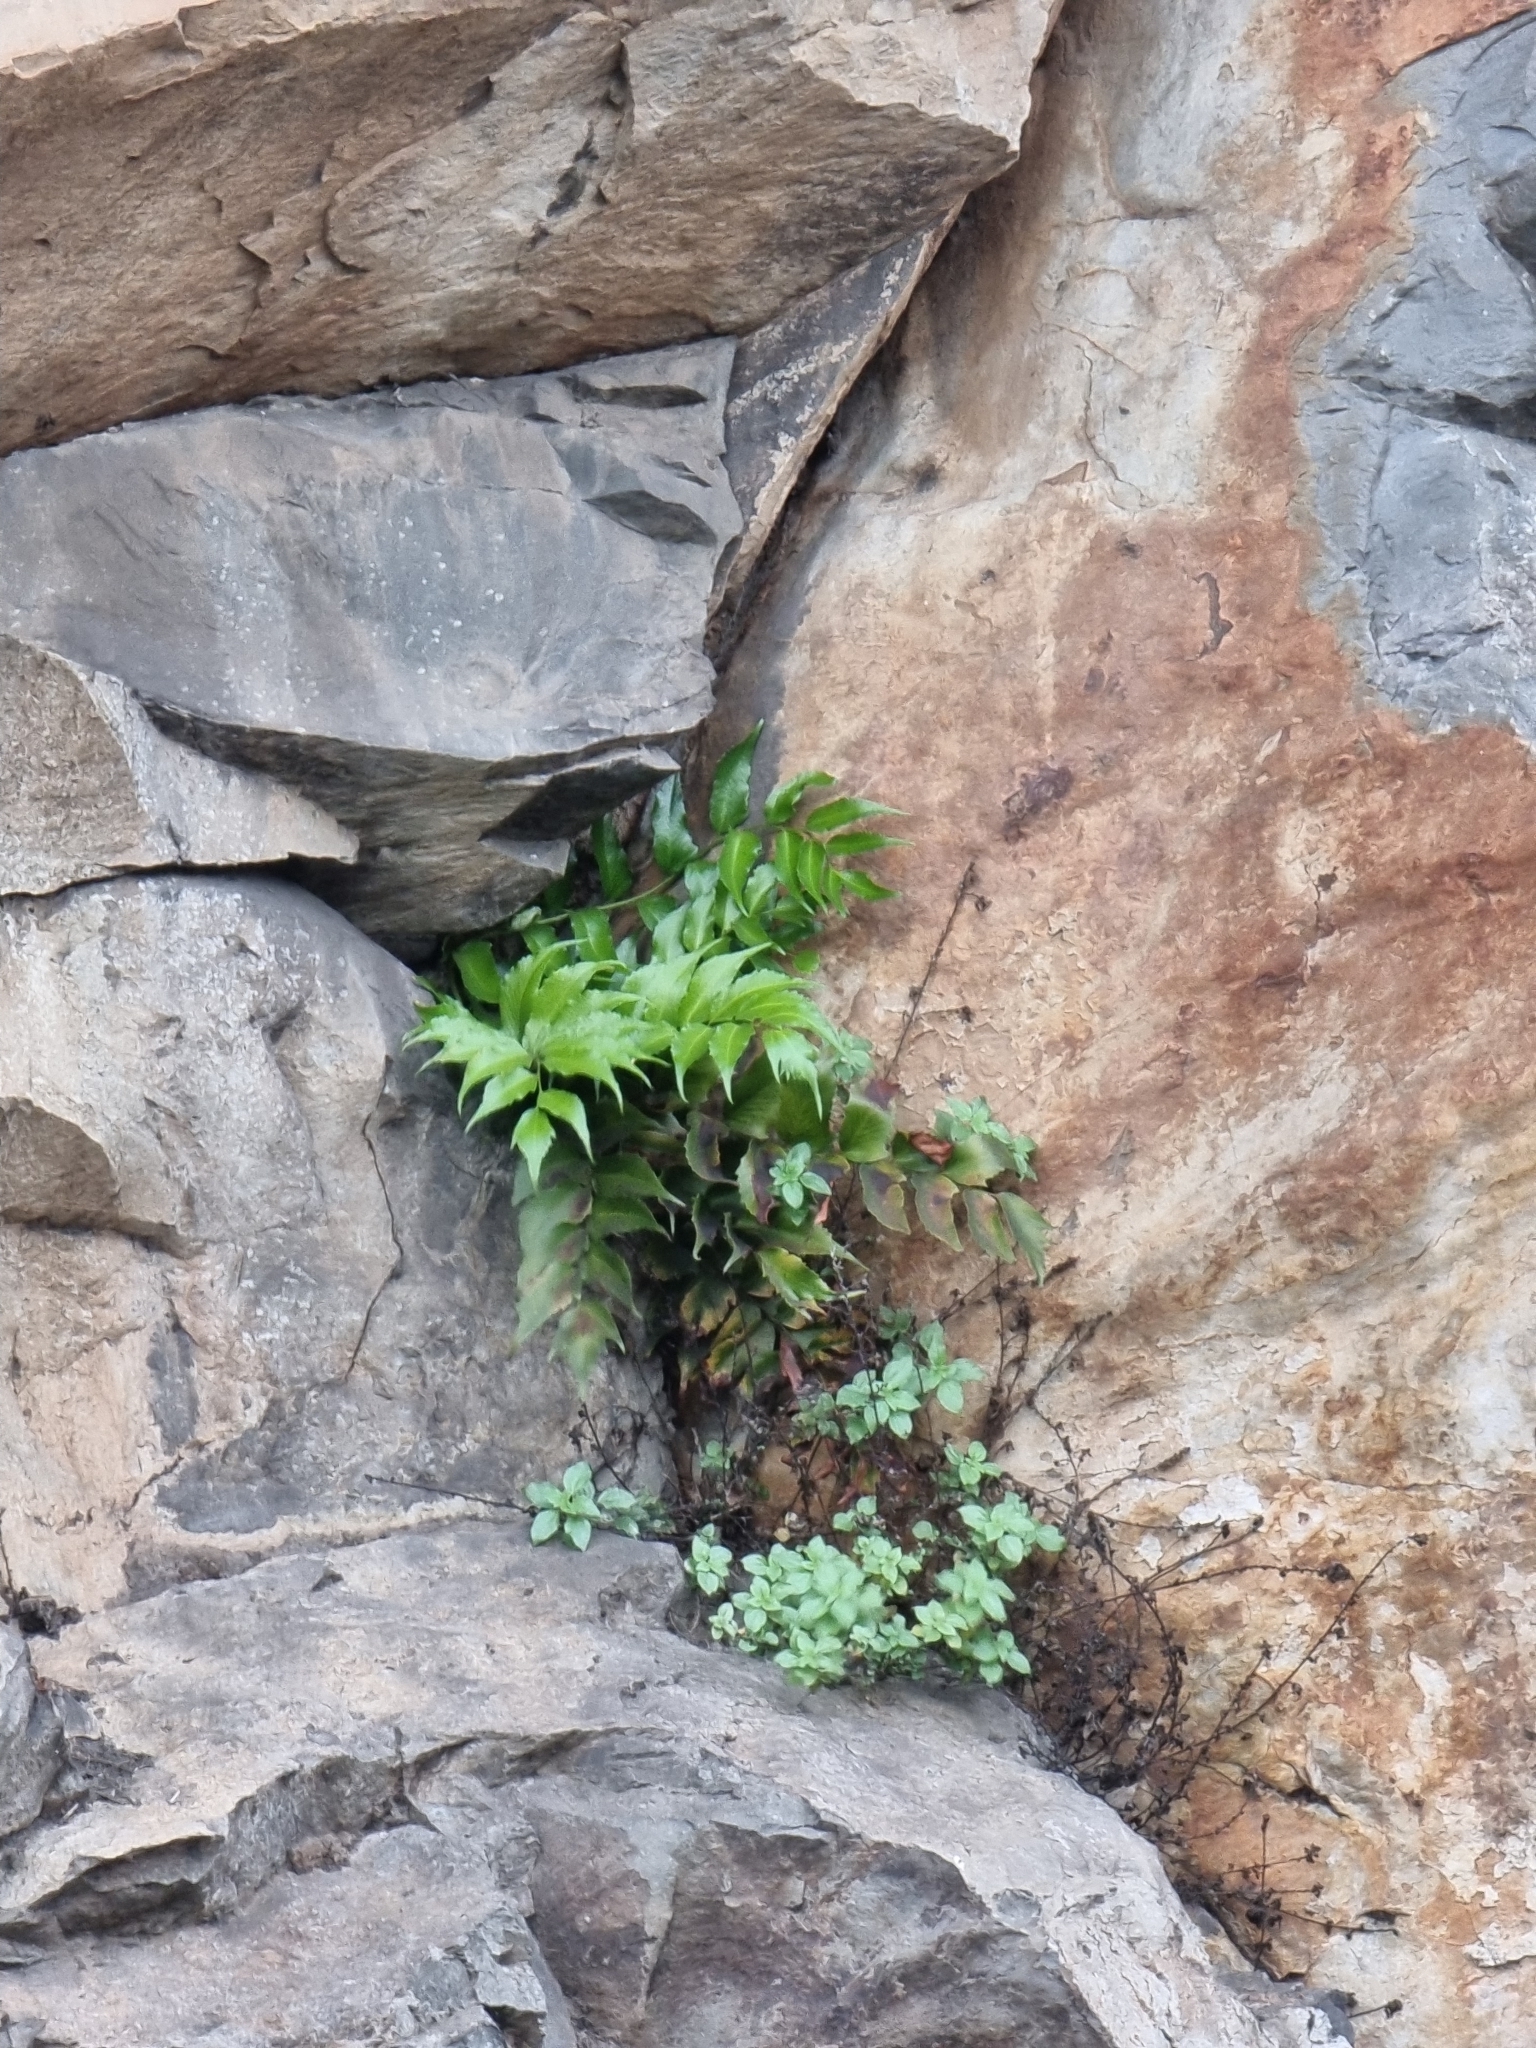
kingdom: Plantae
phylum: Tracheophyta
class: Polypodiopsida
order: Polypodiales
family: Dryopteridaceae
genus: Cyrtomium
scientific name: Cyrtomium falcatum
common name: House holly-fern
